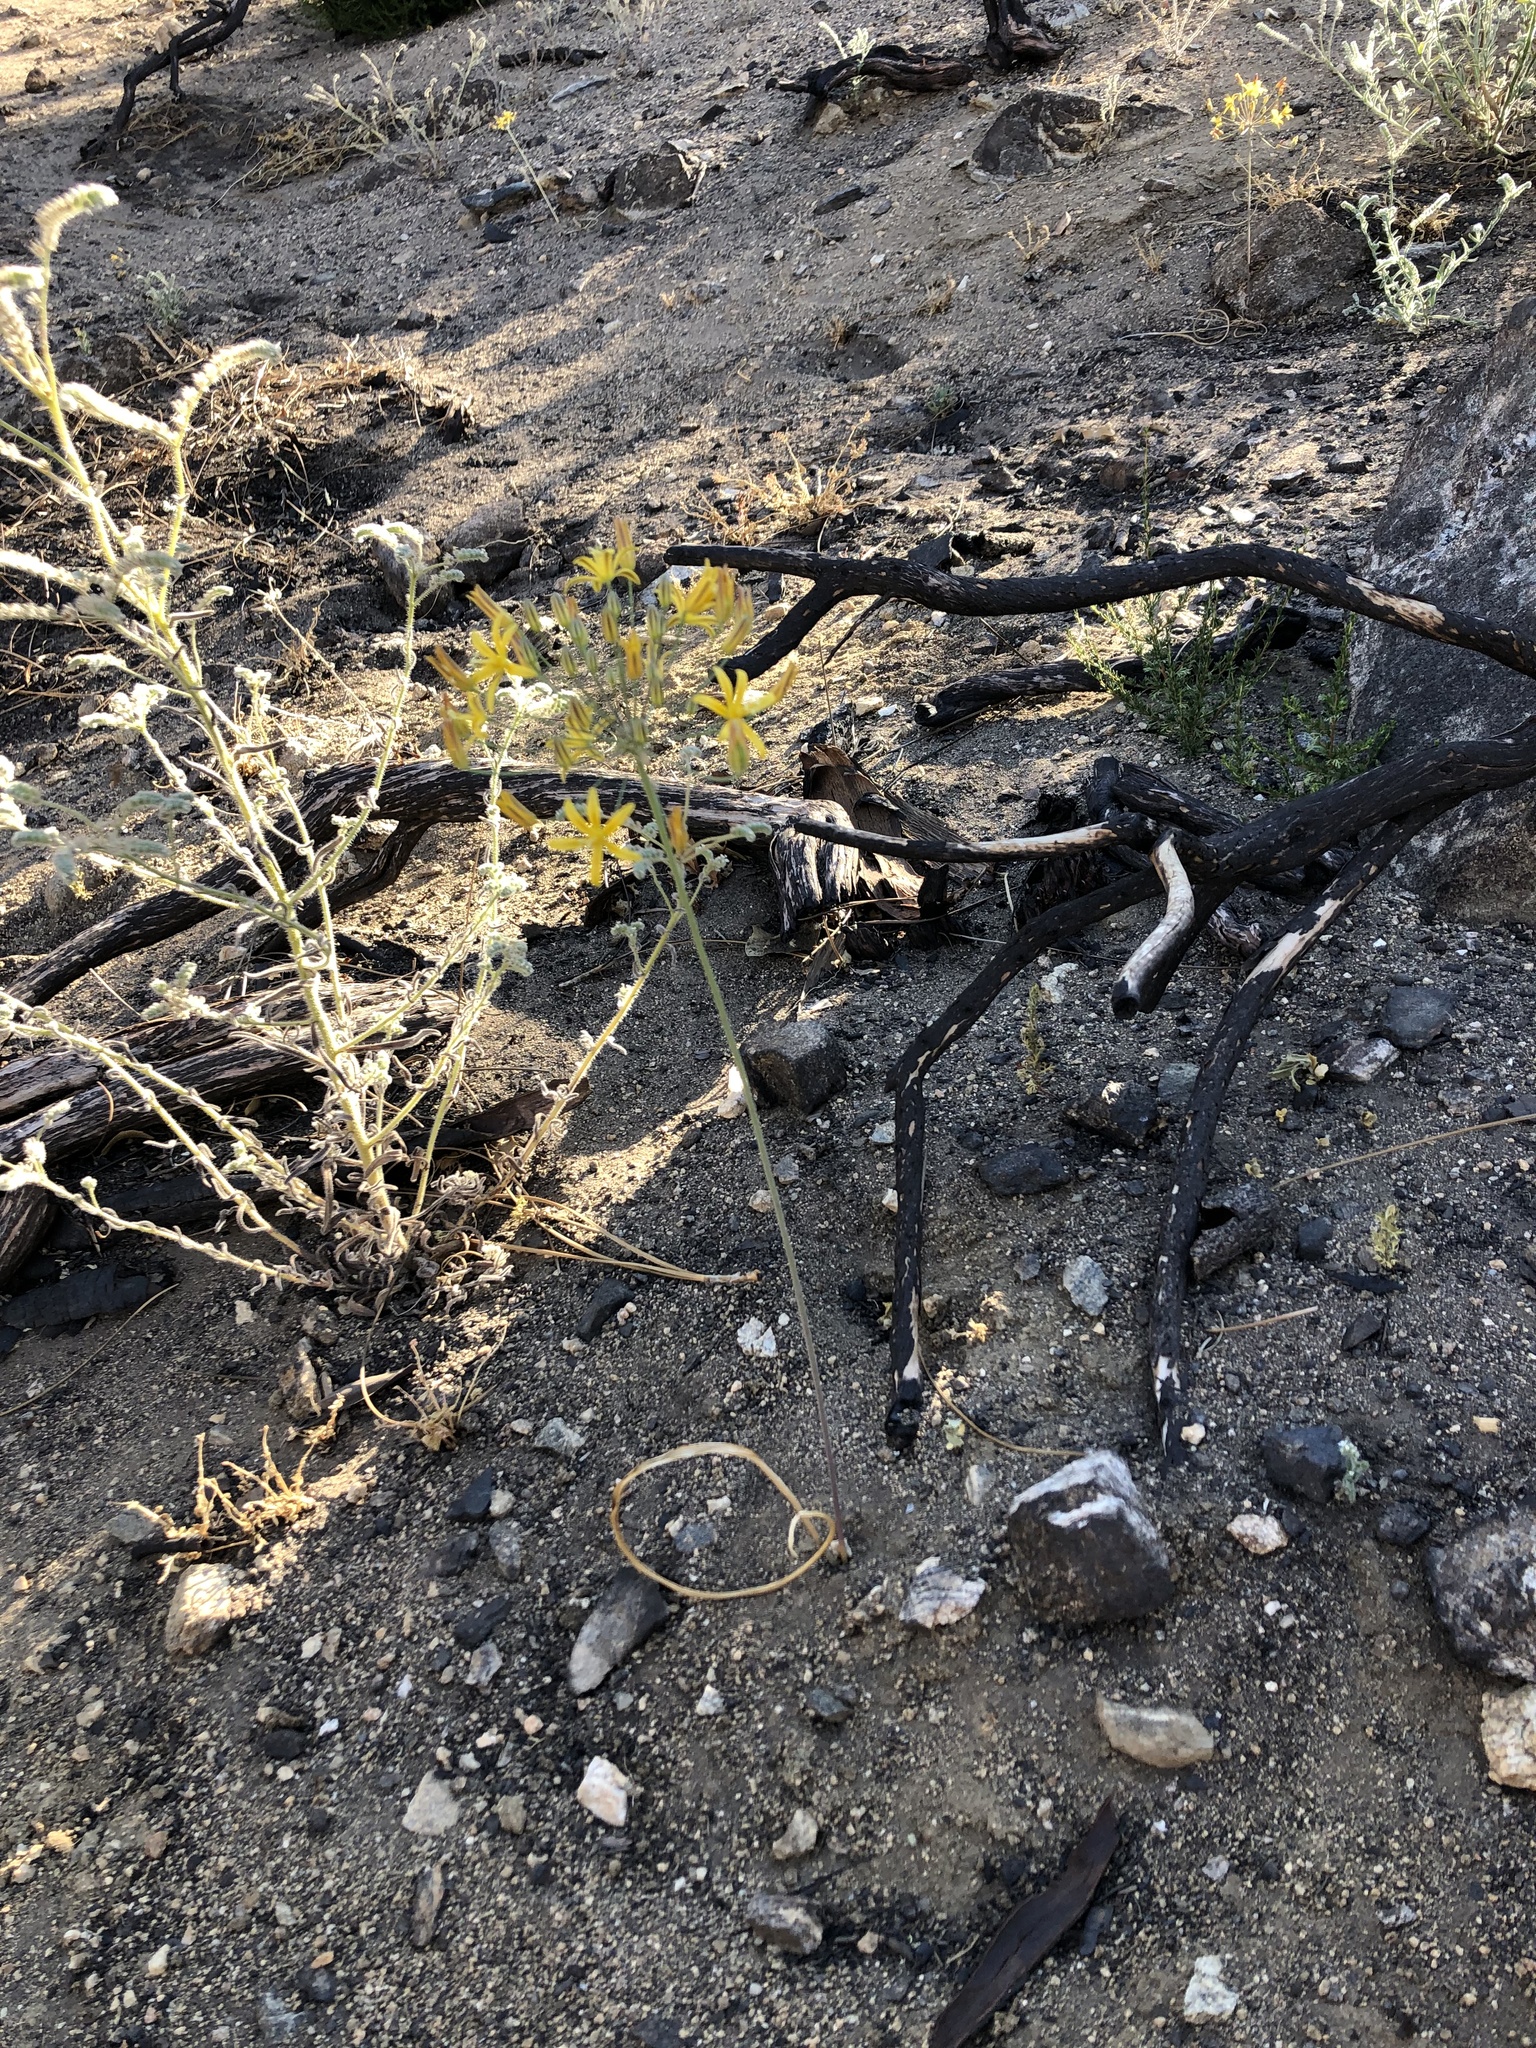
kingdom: Plantae
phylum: Tracheophyta
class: Liliopsida
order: Asparagales
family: Asparagaceae
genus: Bloomeria
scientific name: Bloomeria crocea
